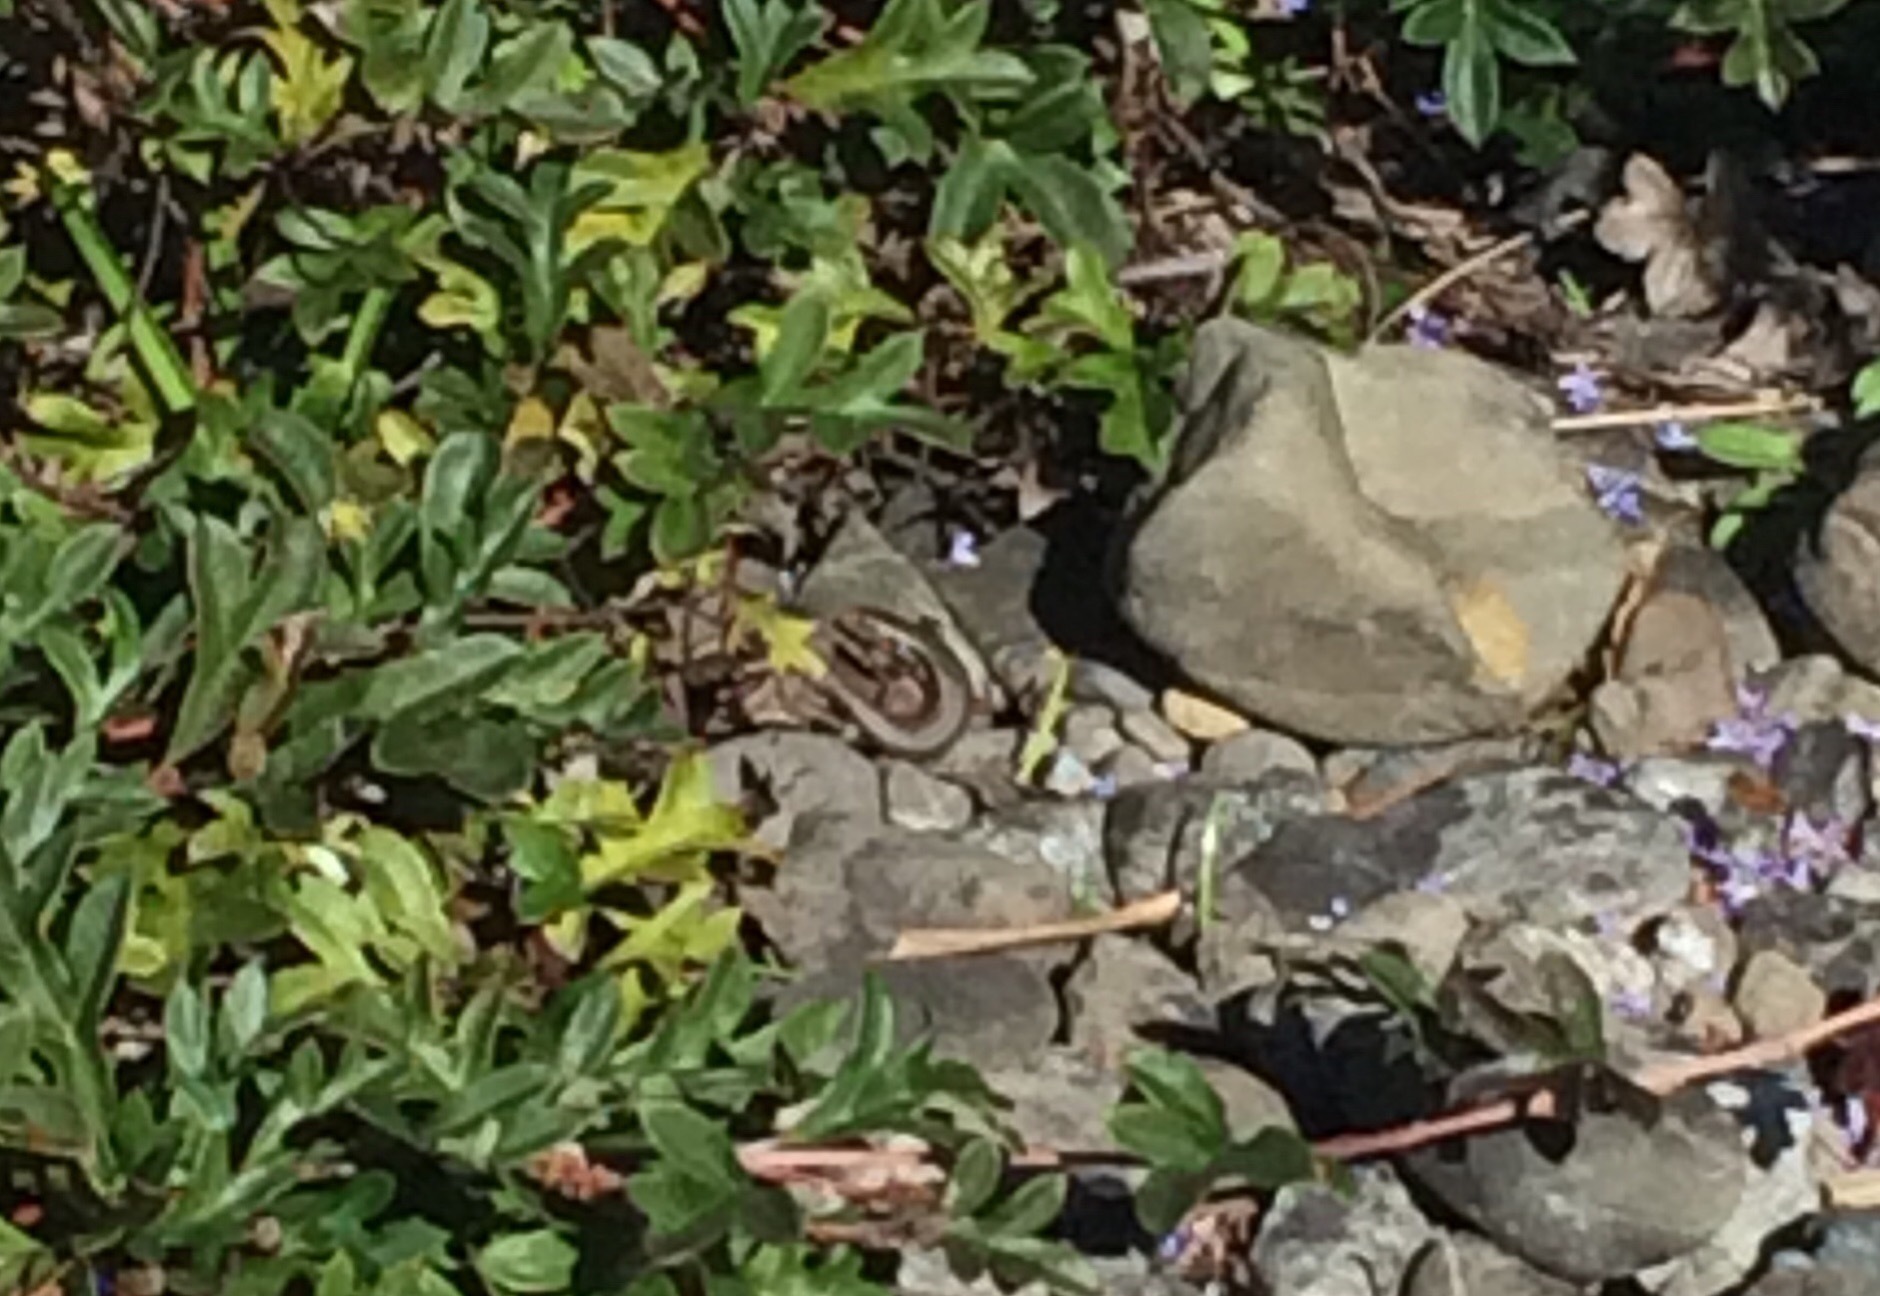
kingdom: Animalia
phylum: Chordata
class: Squamata
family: Scincidae
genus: Oligosoma
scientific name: Oligosoma polychroma
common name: Common new zealand skink
